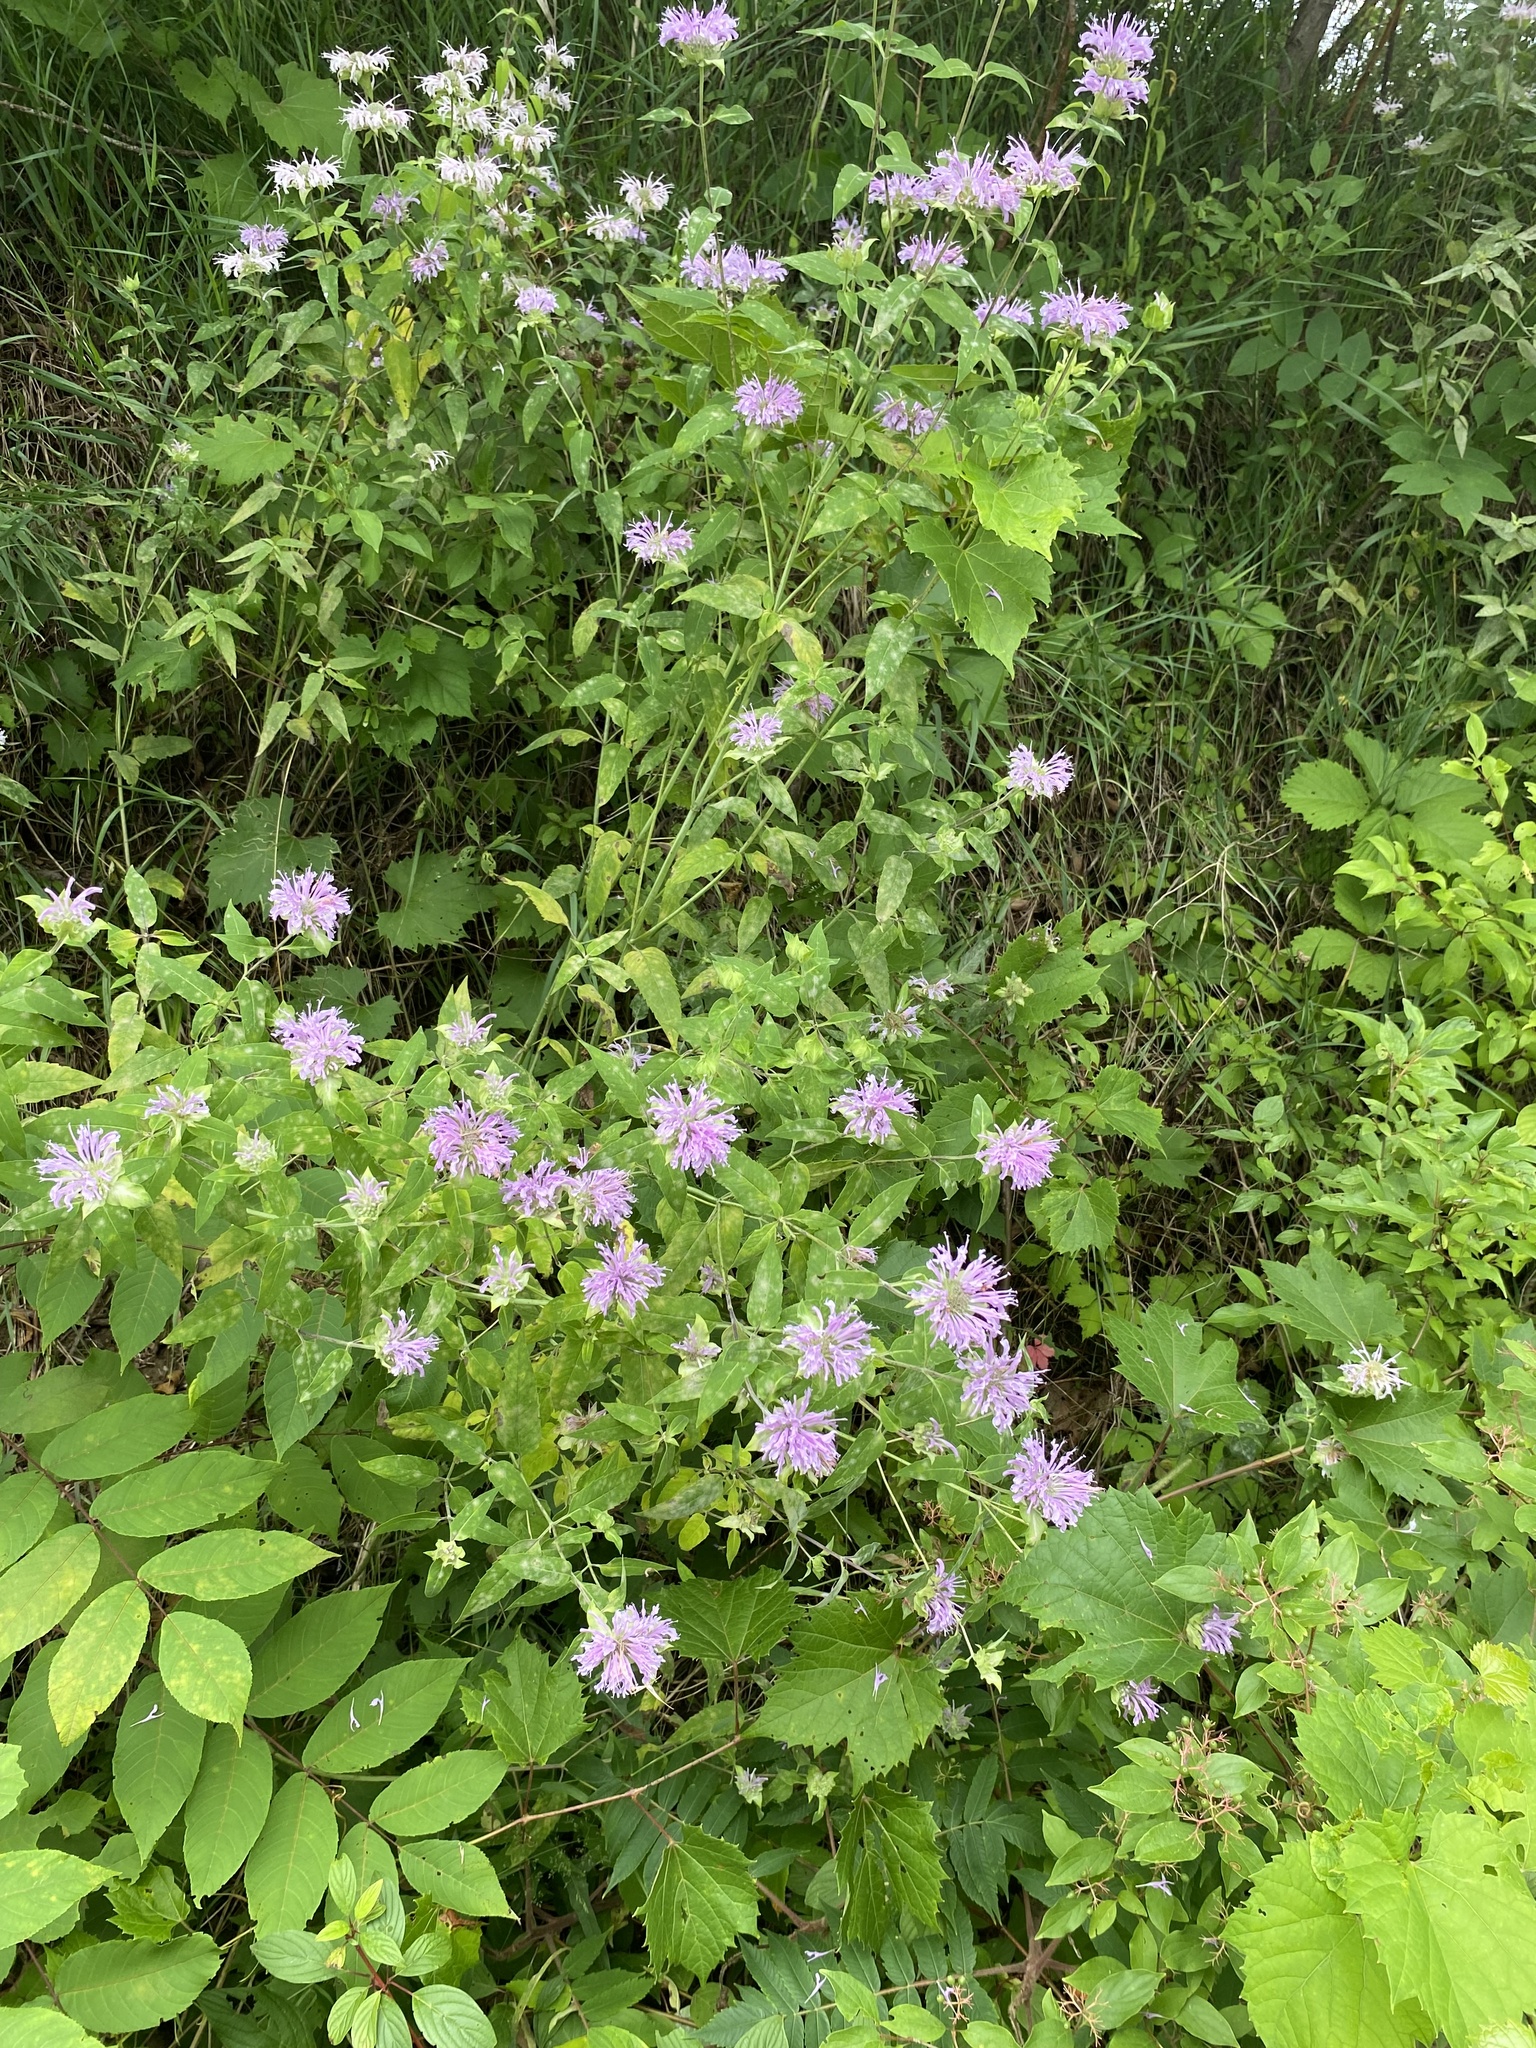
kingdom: Plantae
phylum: Tracheophyta
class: Magnoliopsida
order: Lamiales
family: Lamiaceae
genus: Monarda
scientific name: Monarda fistulosa
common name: Purple beebalm
